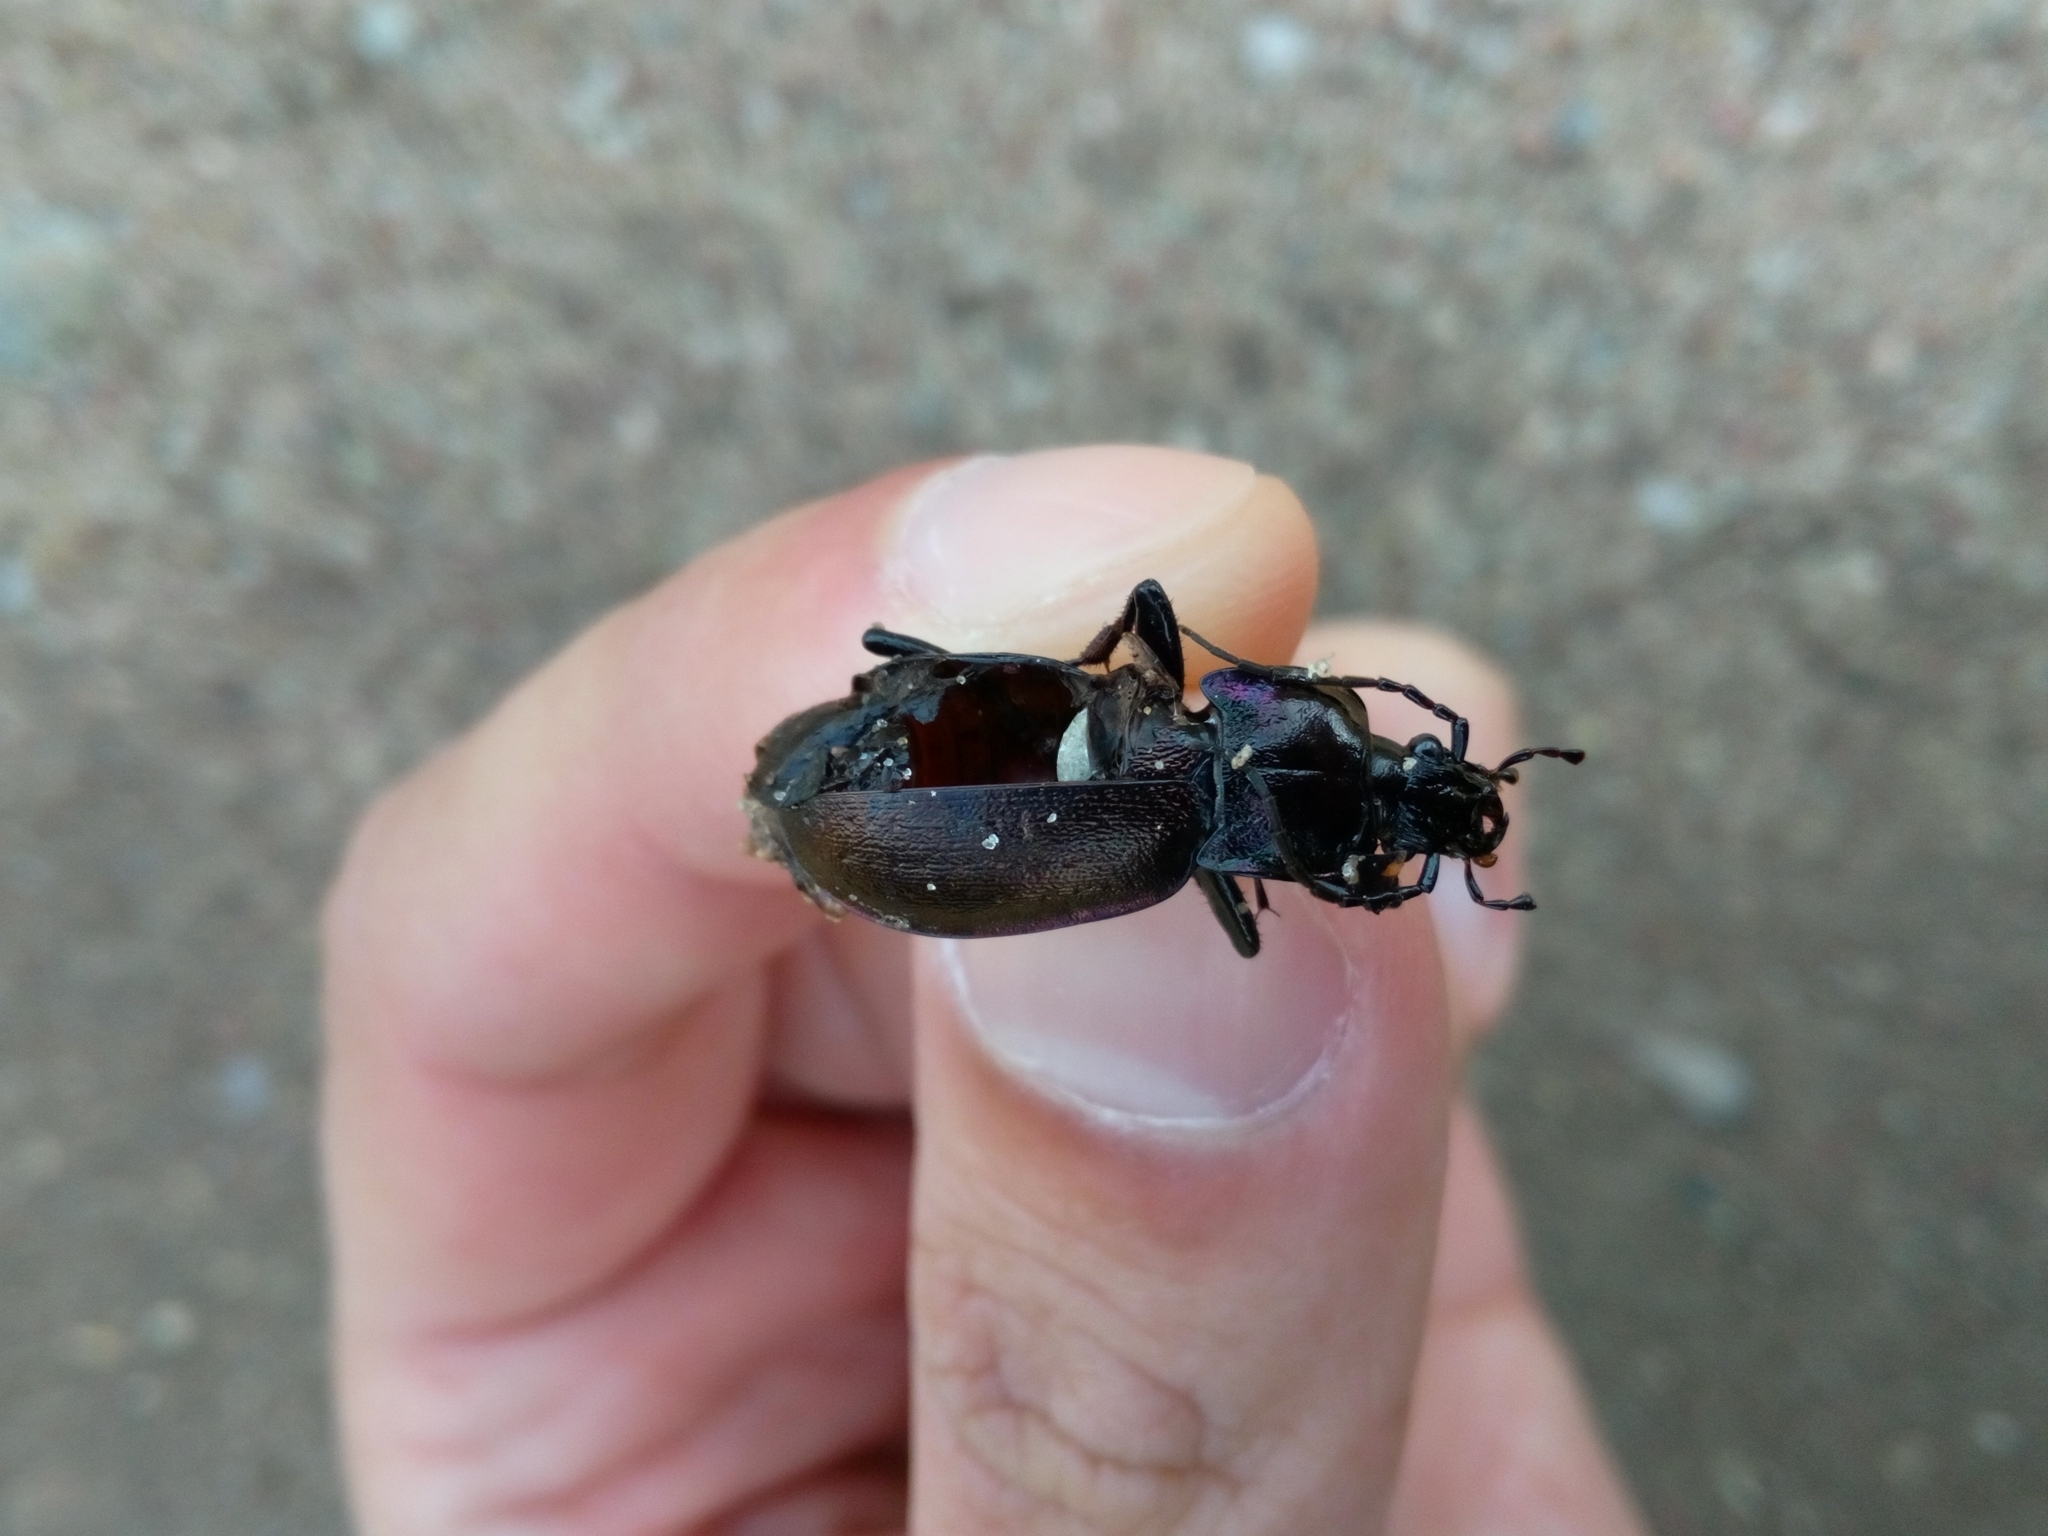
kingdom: Animalia
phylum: Arthropoda
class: Insecta
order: Coleoptera
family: Carabidae
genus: Carabus
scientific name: Carabus nemoralis
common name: European ground beetle
